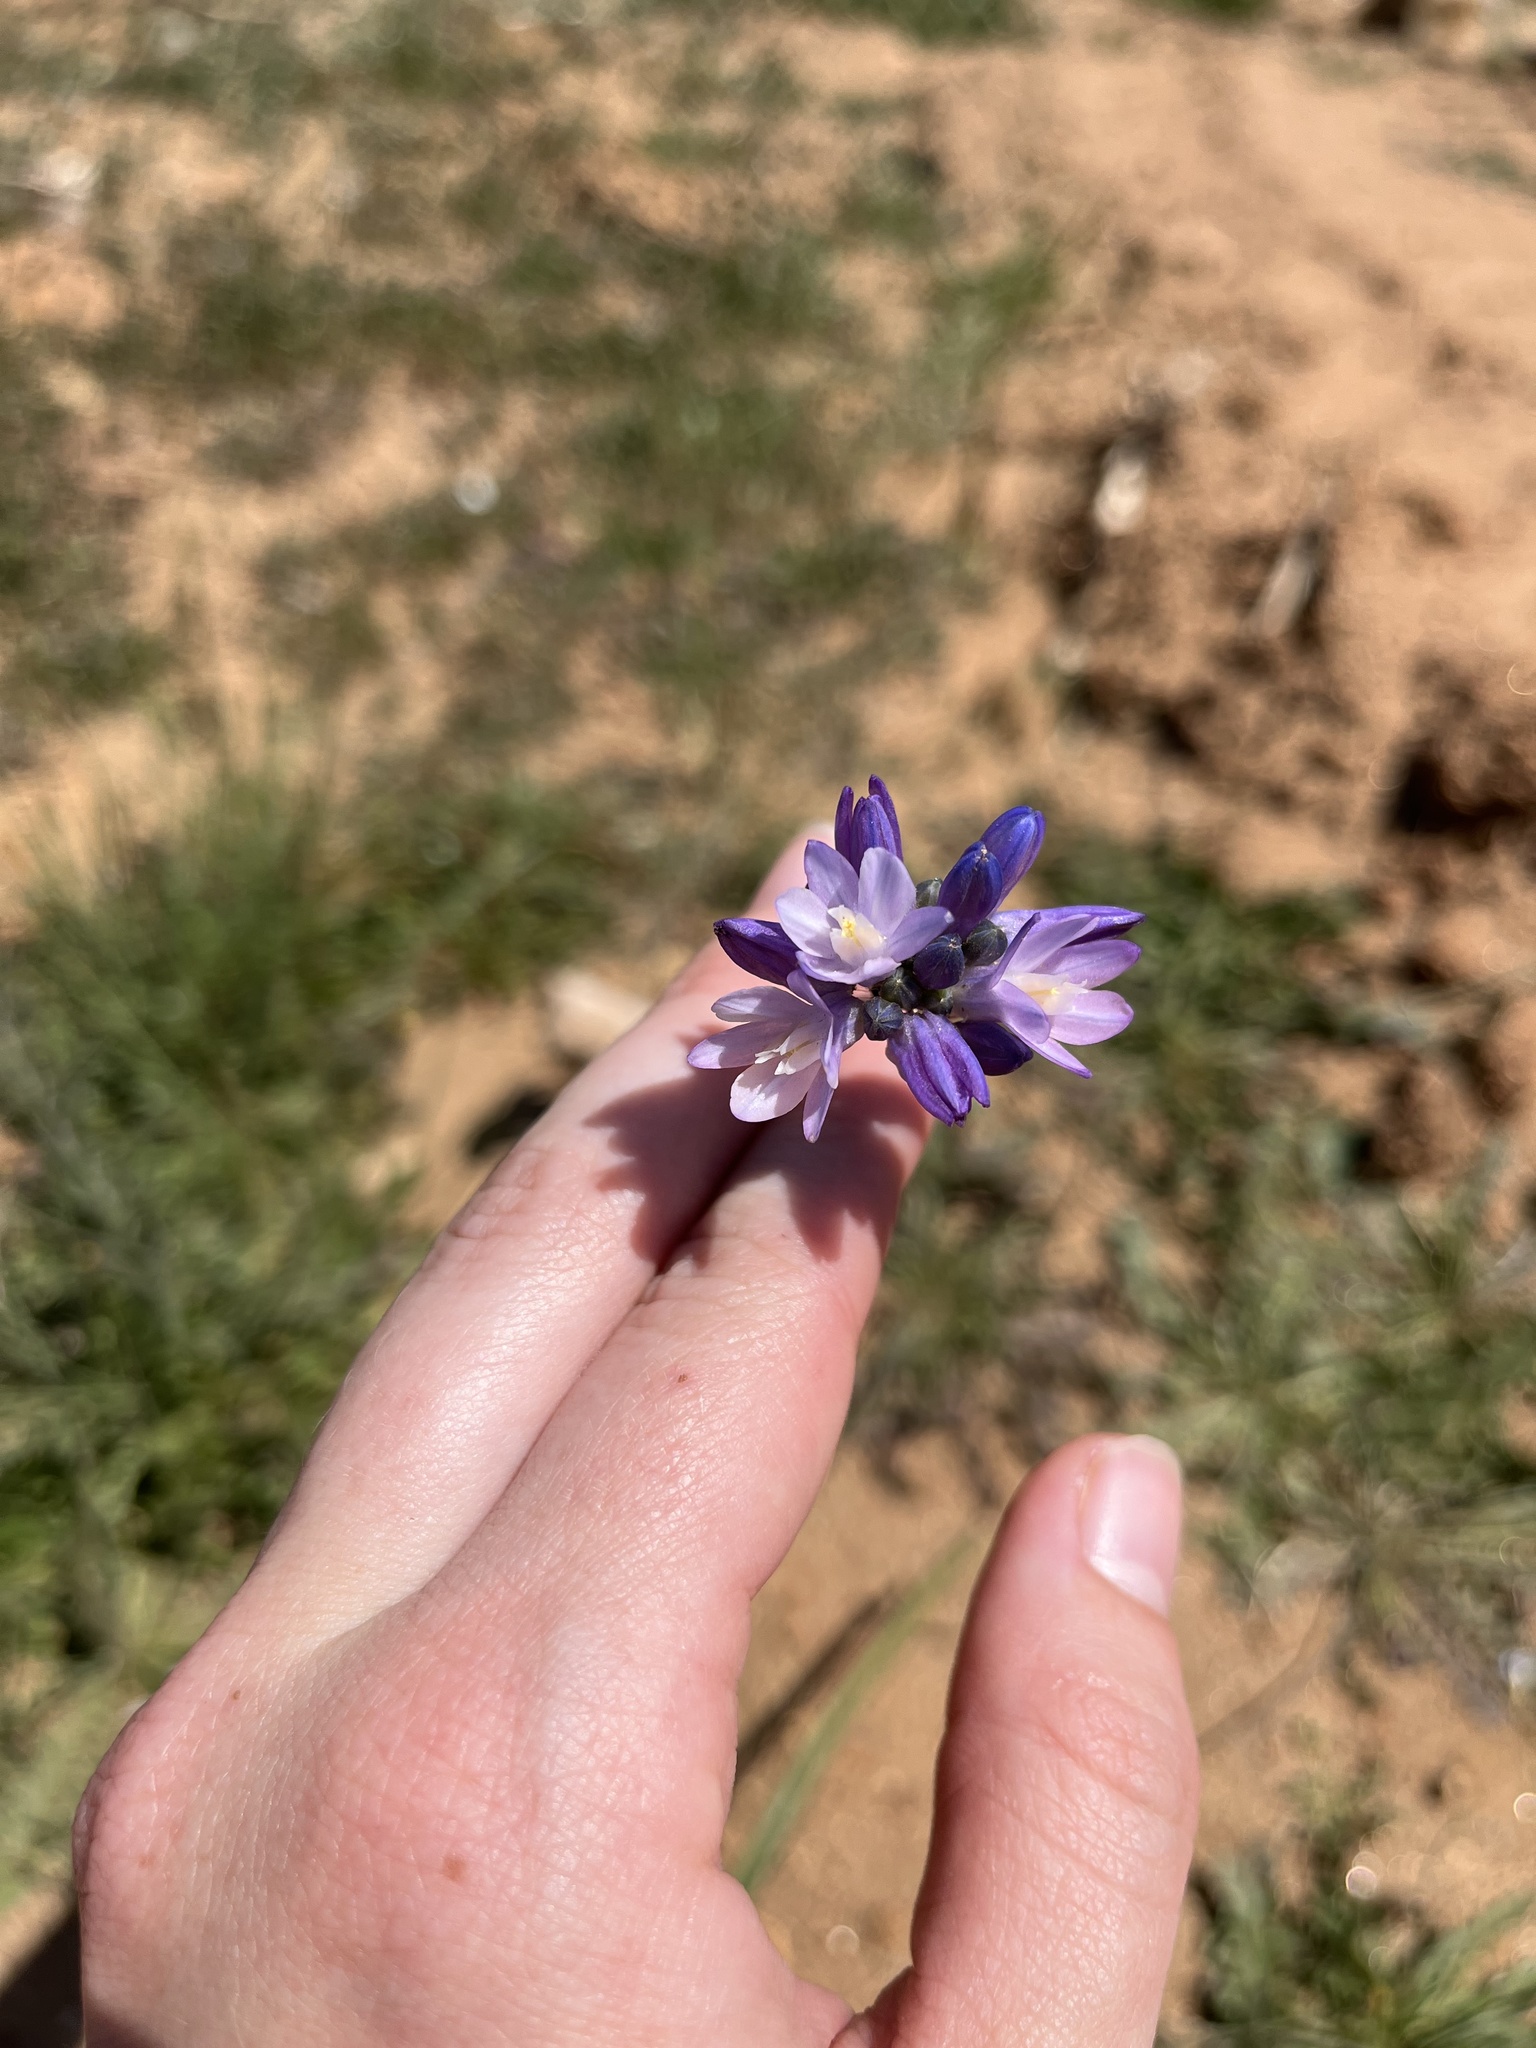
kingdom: Plantae
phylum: Tracheophyta
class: Liliopsida
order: Asparagales
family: Asparagaceae
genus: Dipterostemon
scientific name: Dipterostemon capitatus
